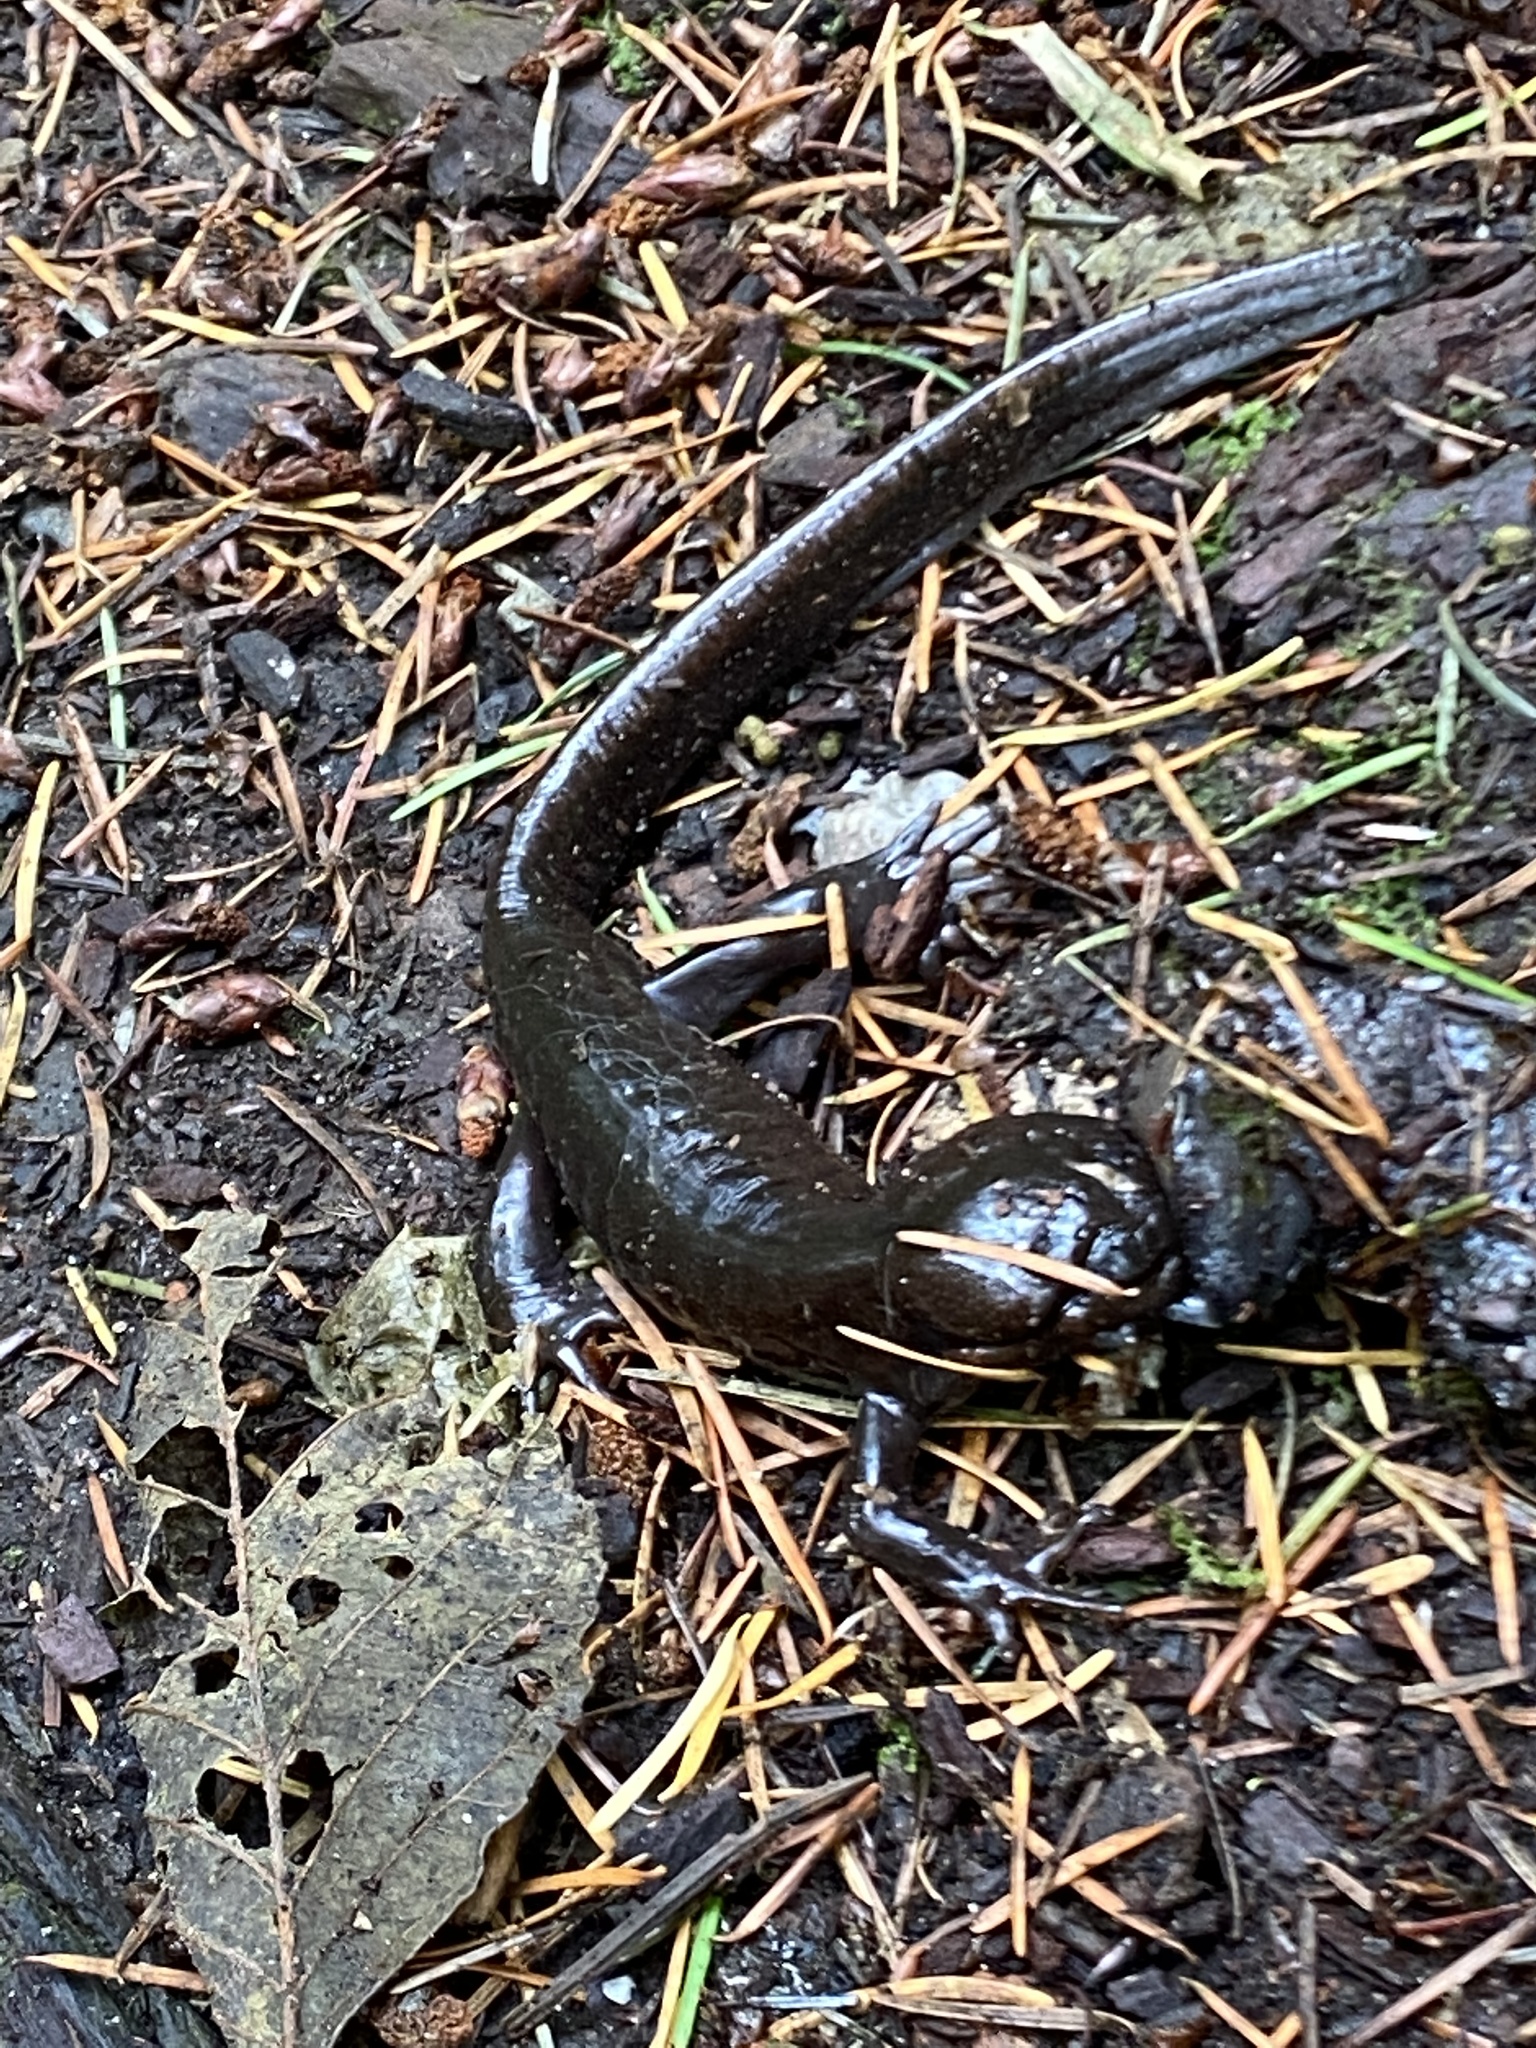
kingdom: Animalia
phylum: Chordata
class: Amphibia
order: Caudata
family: Ambystomatidae
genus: Ambystoma
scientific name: Ambystoma gracile
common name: Northwestern salamander
